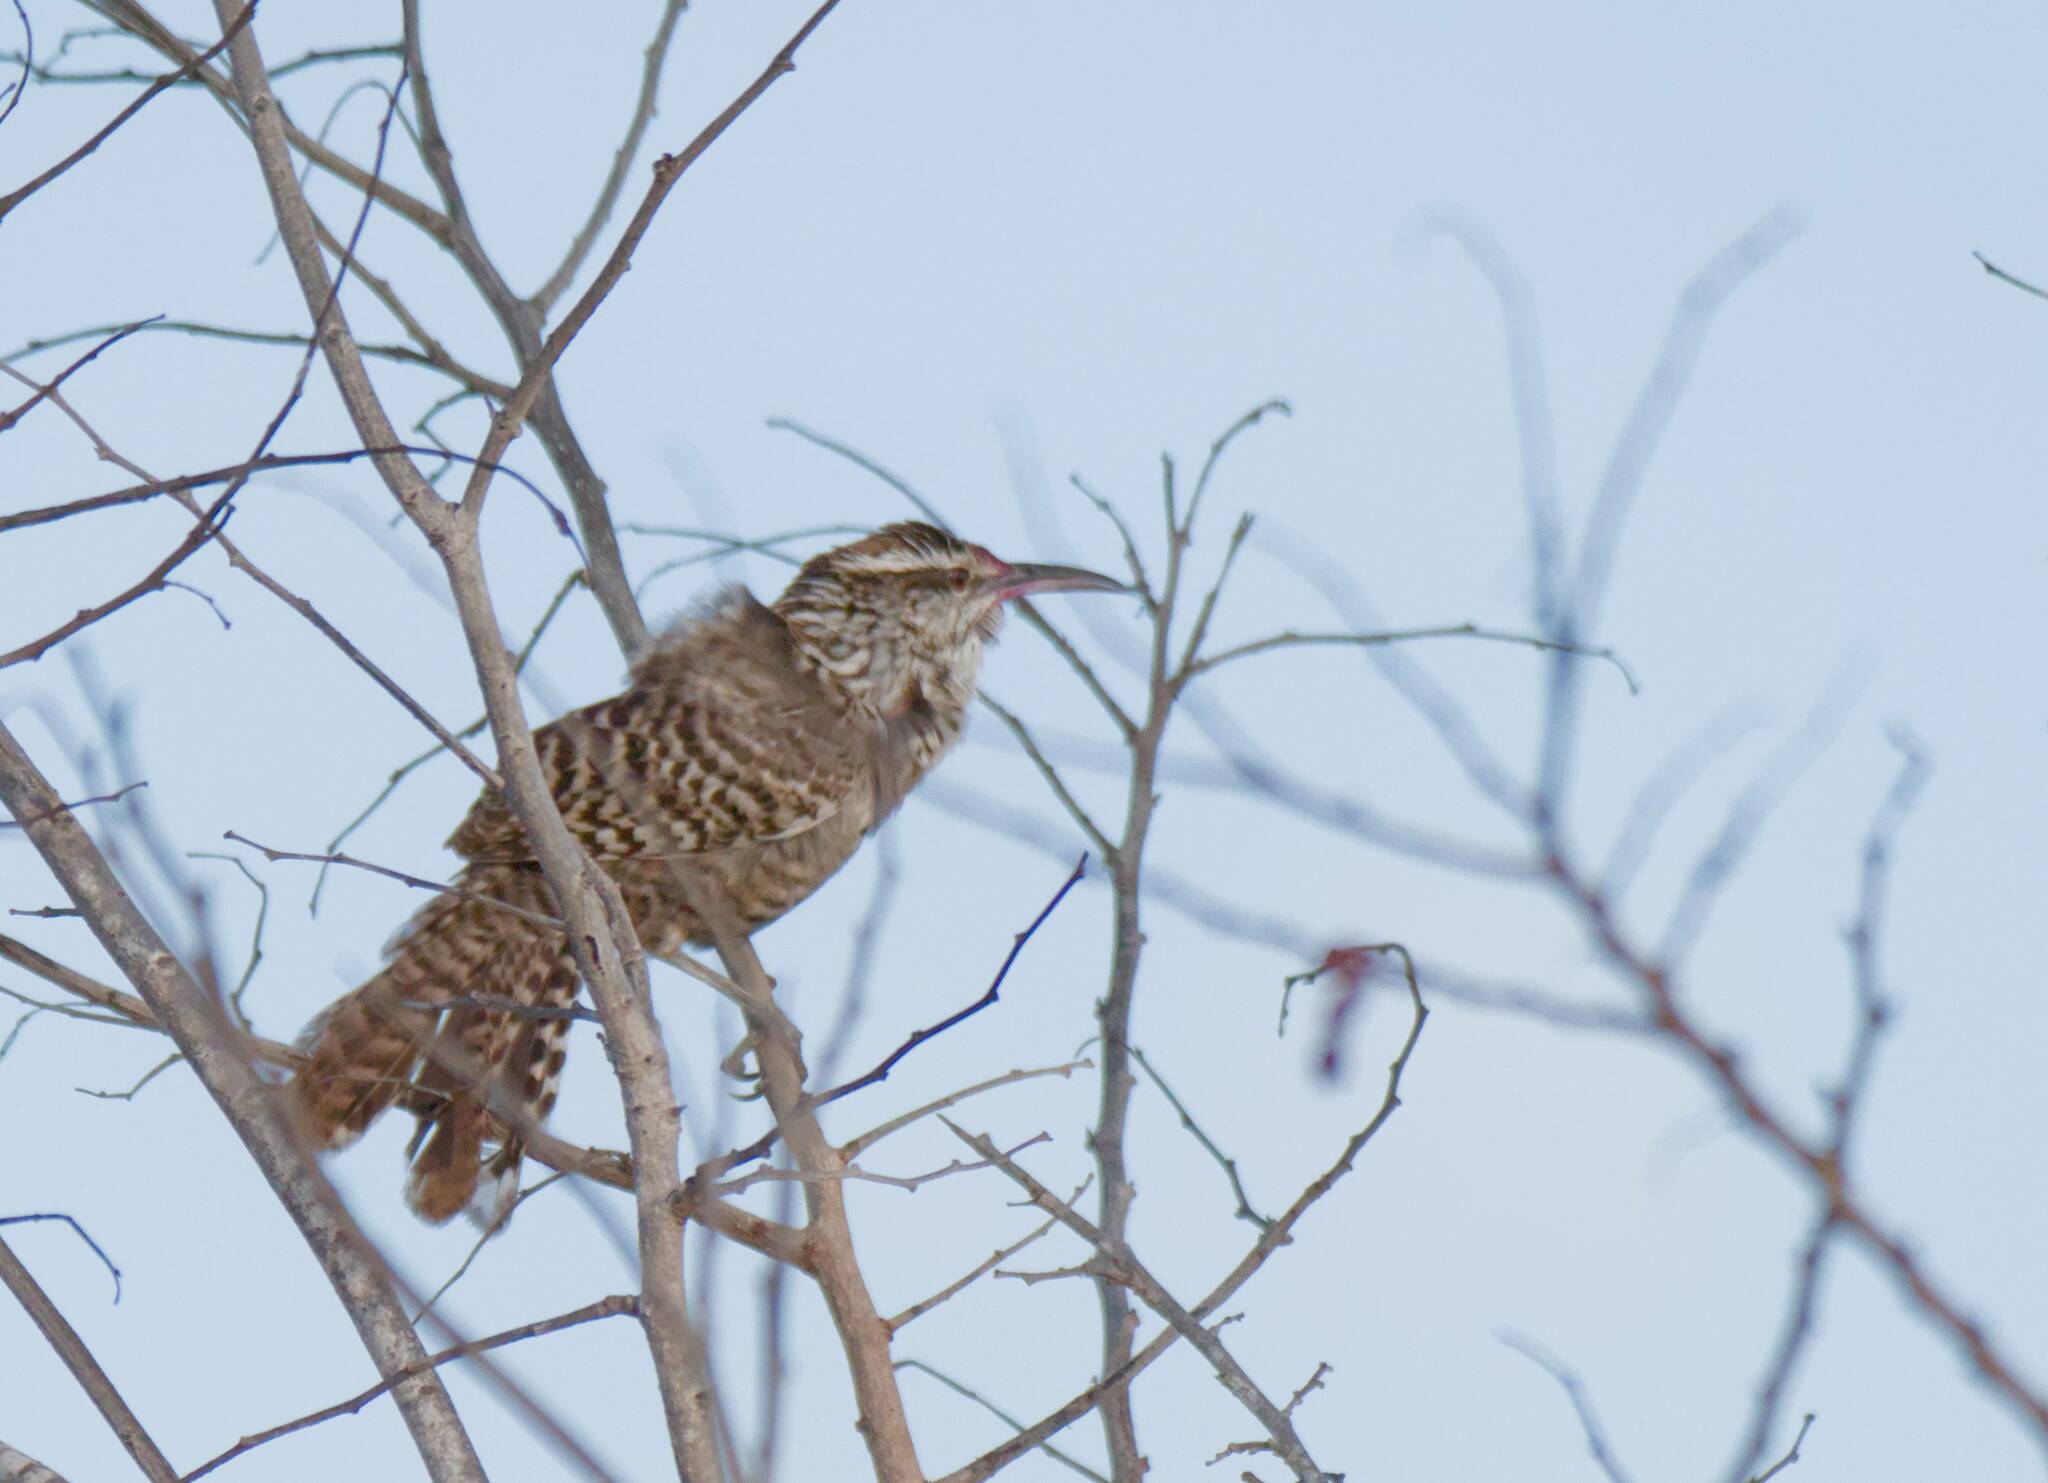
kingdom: Animalia
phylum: Chordata
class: Aves
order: Passeriformes
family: Troglodytidae
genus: Campylorhynchus
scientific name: Campylorhynchus yucatanicus
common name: Yucatan wren
